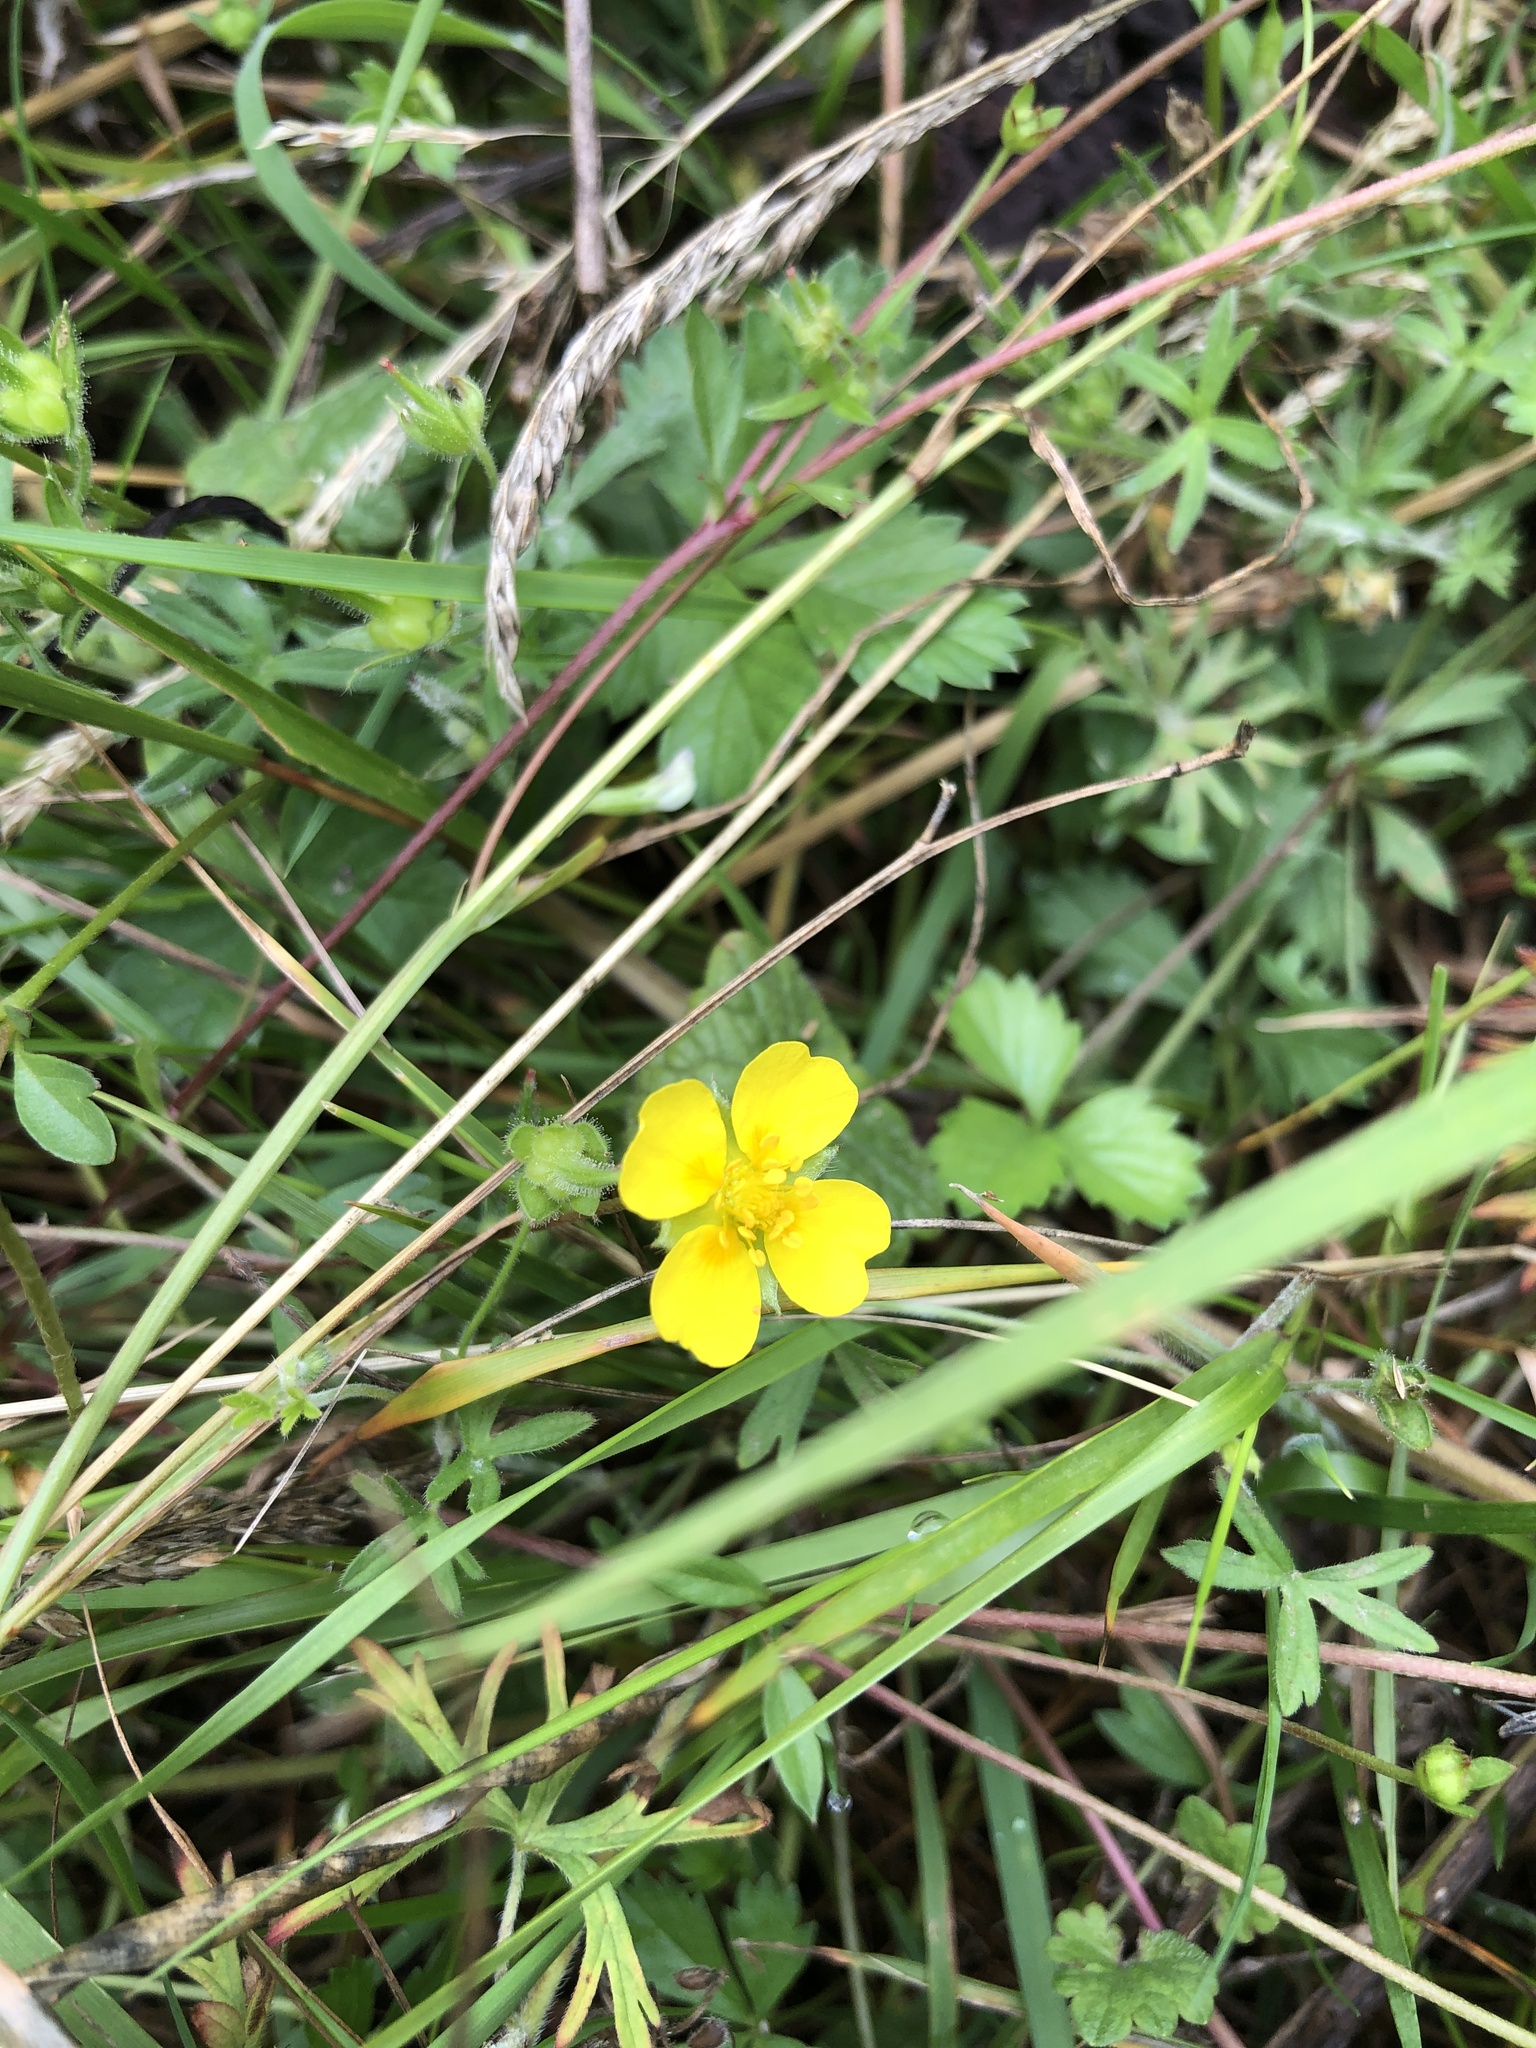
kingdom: Plantae
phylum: Tracheophyta
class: Magnoliopsida
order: Rosales
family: Rosaceae
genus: Potentilla
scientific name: Potentilla erecta
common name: Tormentil
